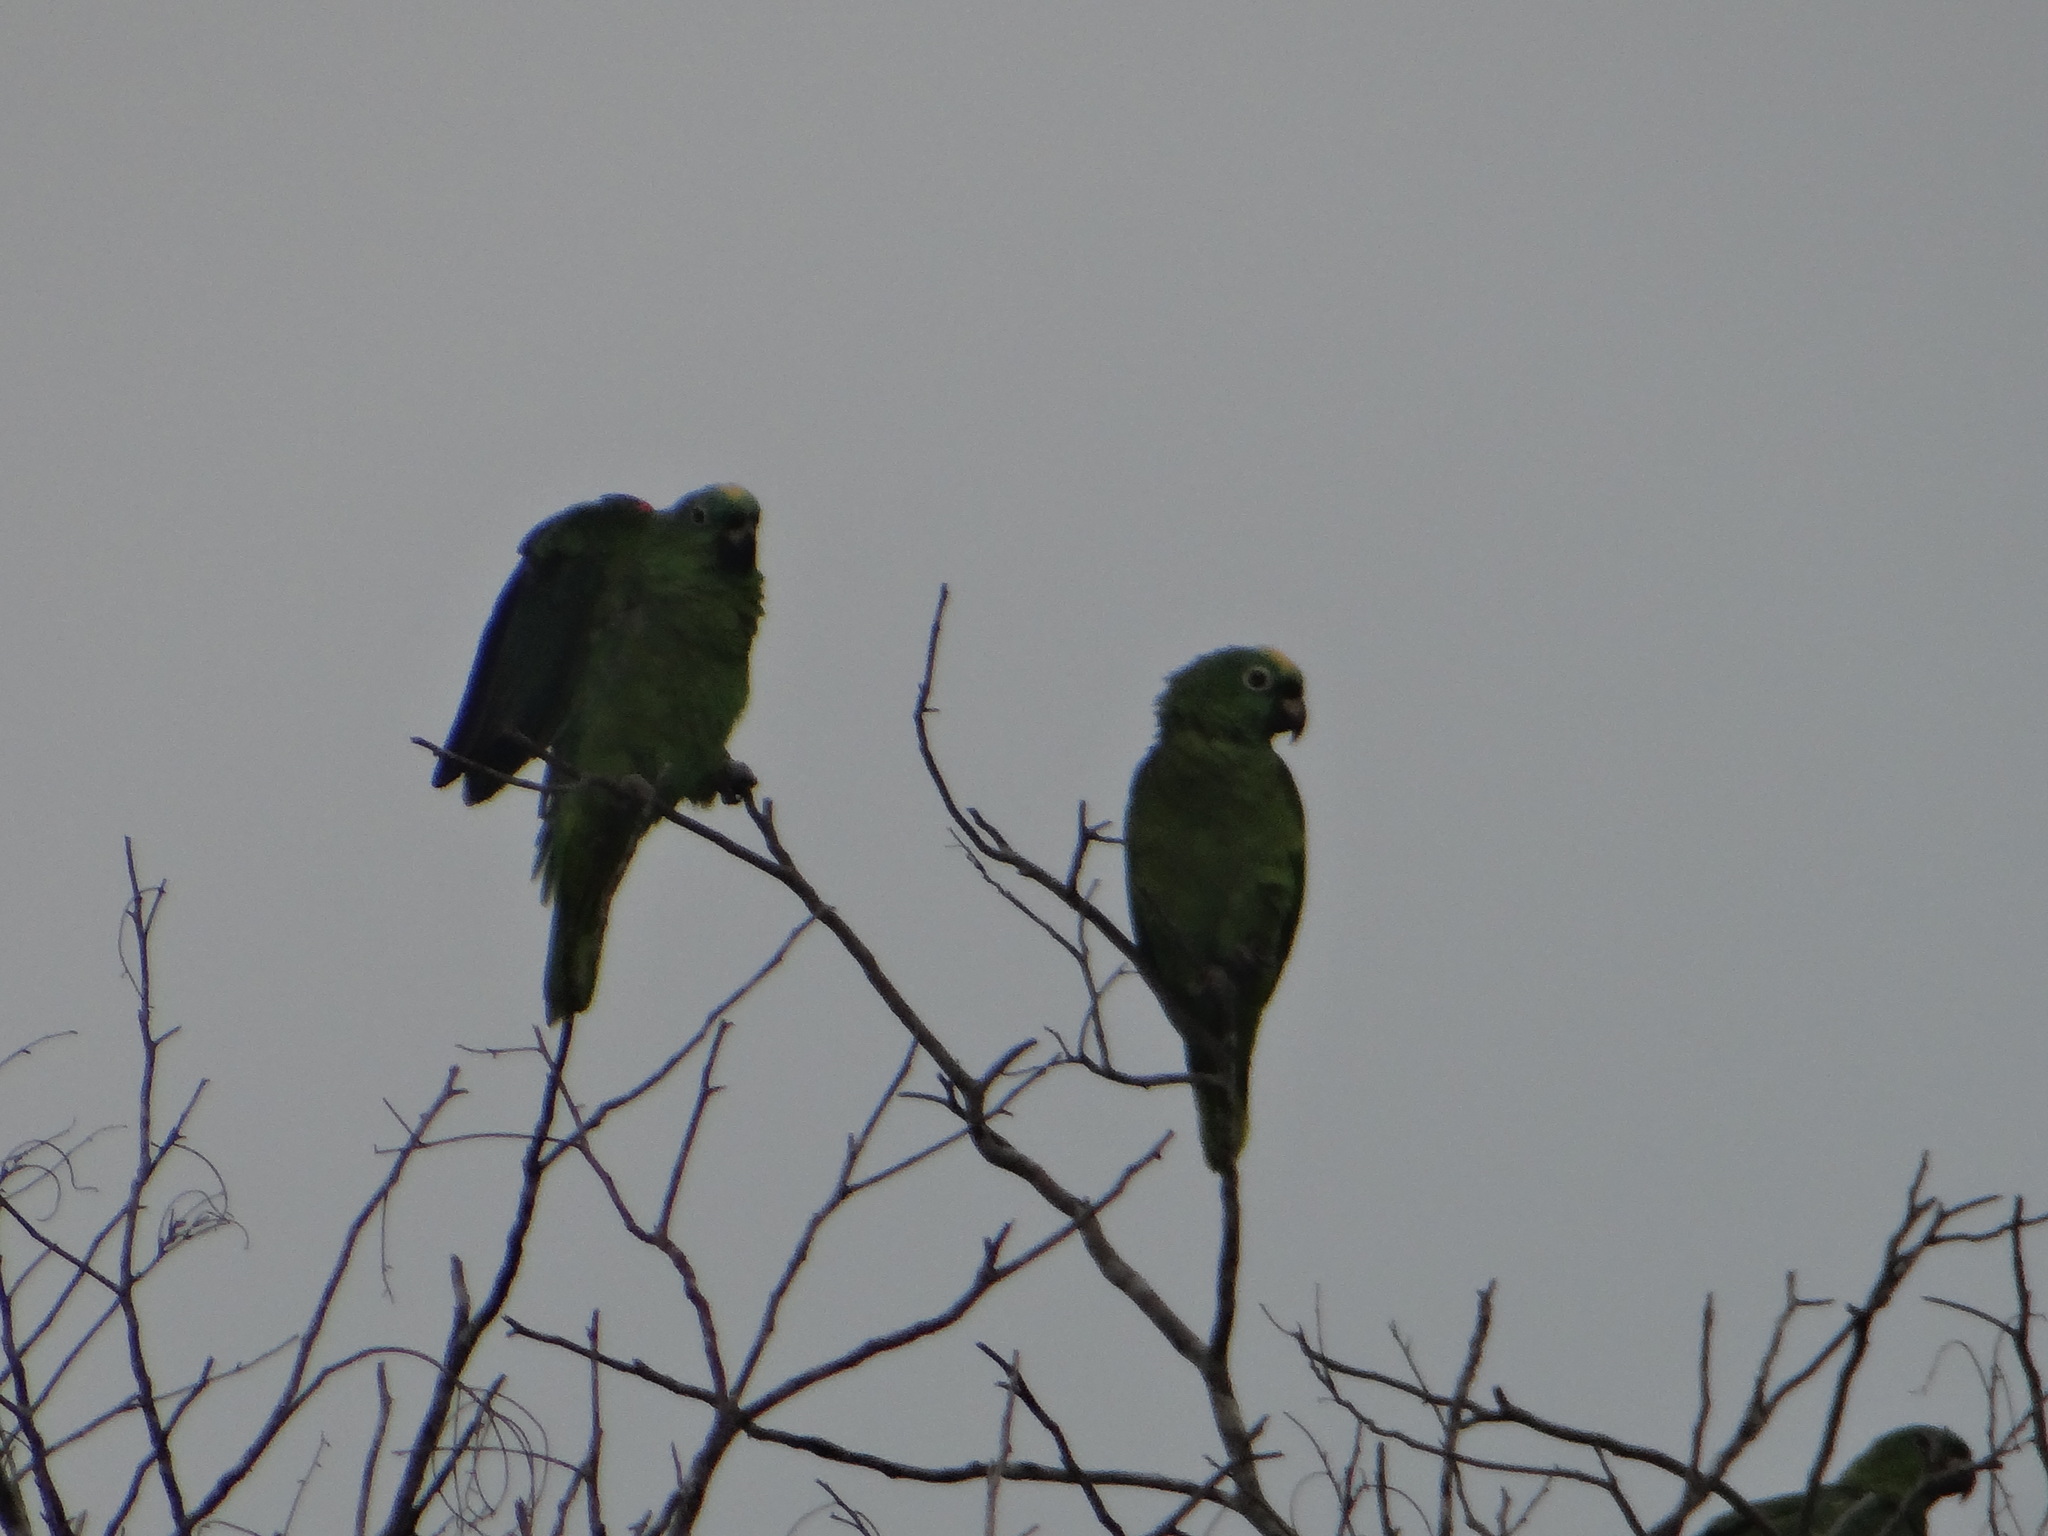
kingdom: Animalia
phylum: Chordata
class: Aves
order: Psittaciformes
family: Psittacidae
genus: Amazona
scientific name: Amazona ochrocephala
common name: Yellow-crowned amazon
